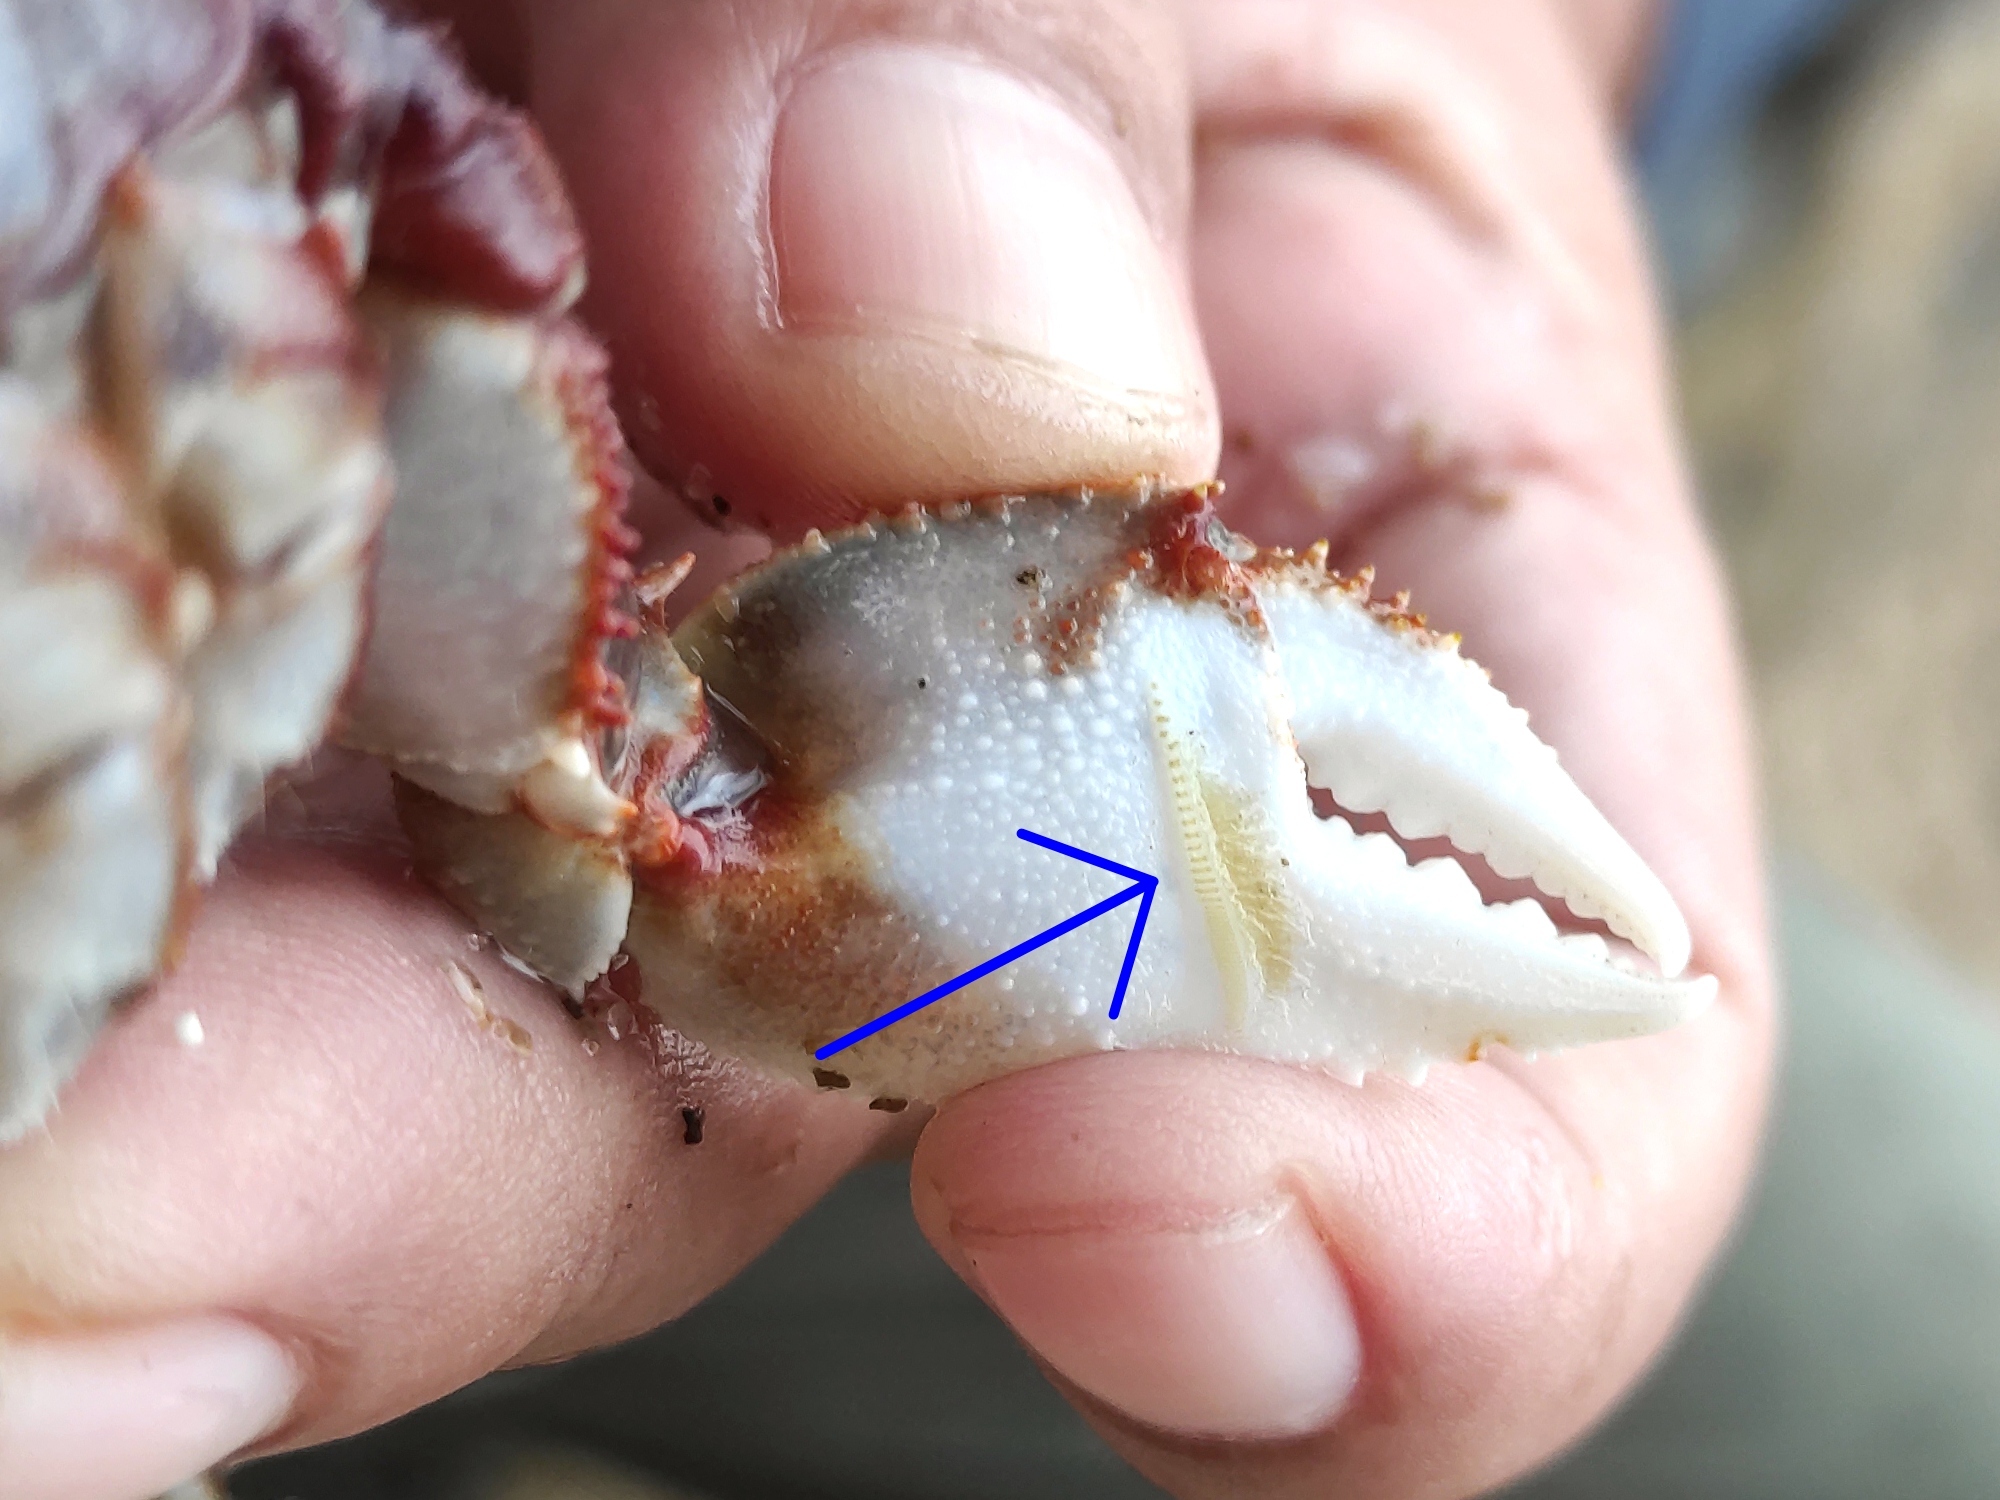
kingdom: Animalia
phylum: Arthropoda
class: Malacostraca
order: Decapoda
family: Ocypodidae
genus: Ocypode
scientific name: Ocypode ceratophthalmus
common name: Indo-pacific ghost crab
